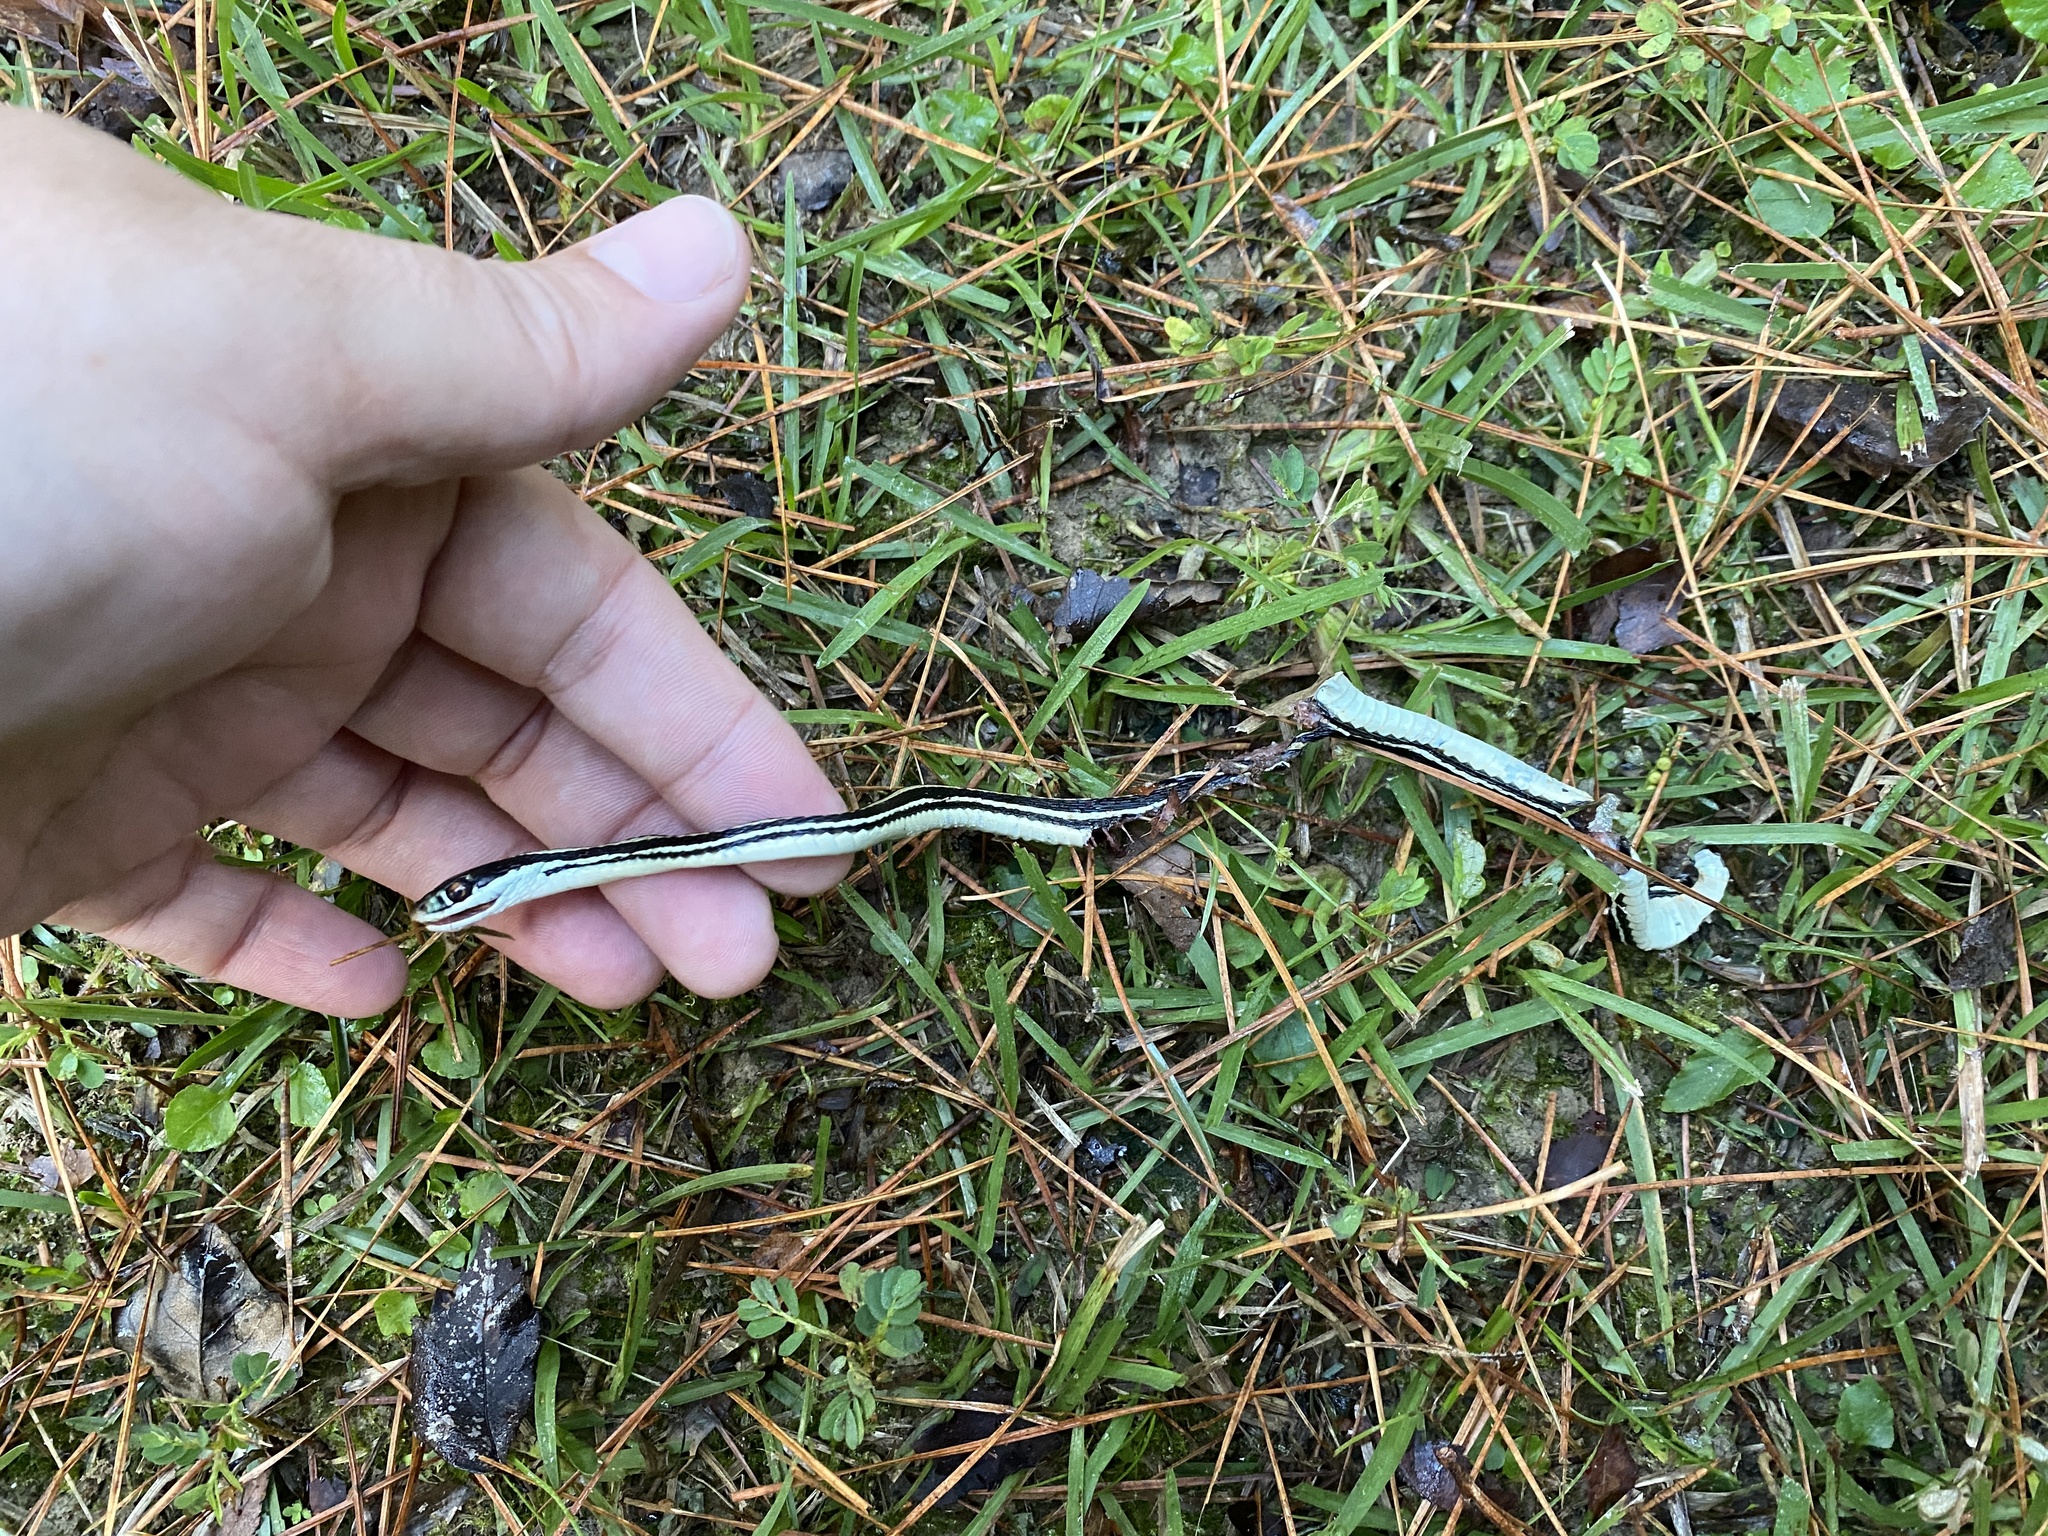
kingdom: Animalia
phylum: Chordata
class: Squamata
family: Colubridae
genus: Thamnophis
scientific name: Thamnophis proximus
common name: Western ribbon snake
